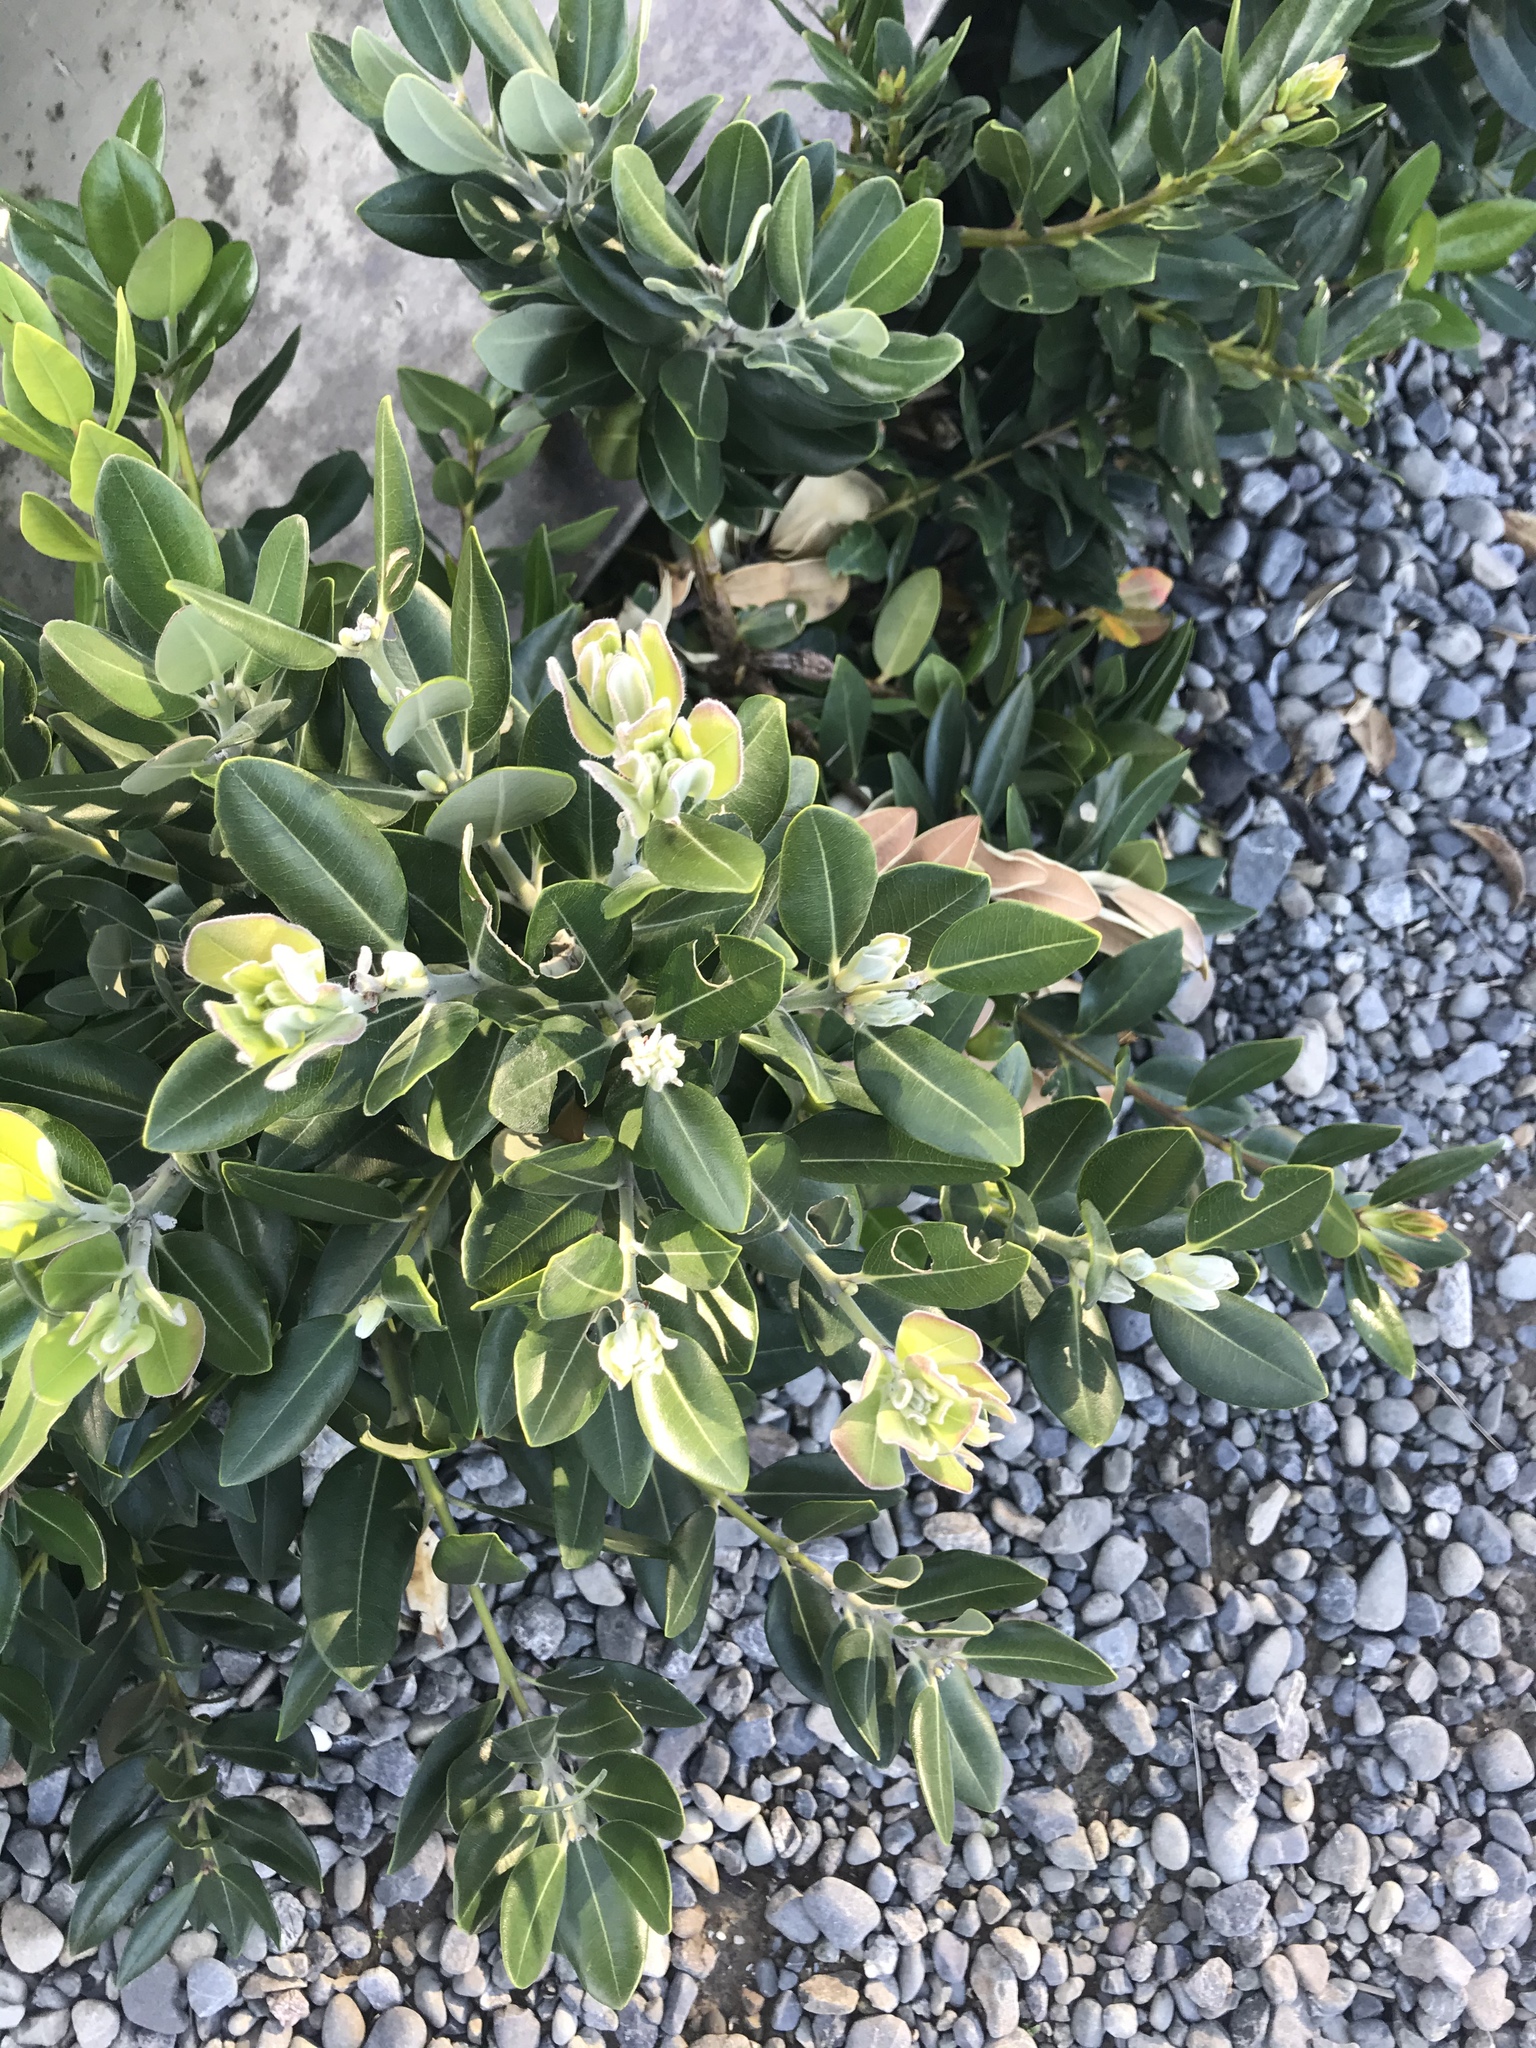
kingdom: Plantae
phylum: Tracheophyta
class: Magnoliopsida
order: Myrtales
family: Myrtaceae
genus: Metrosideros
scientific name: Metrosideros excelsa
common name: New zealand christmastree
